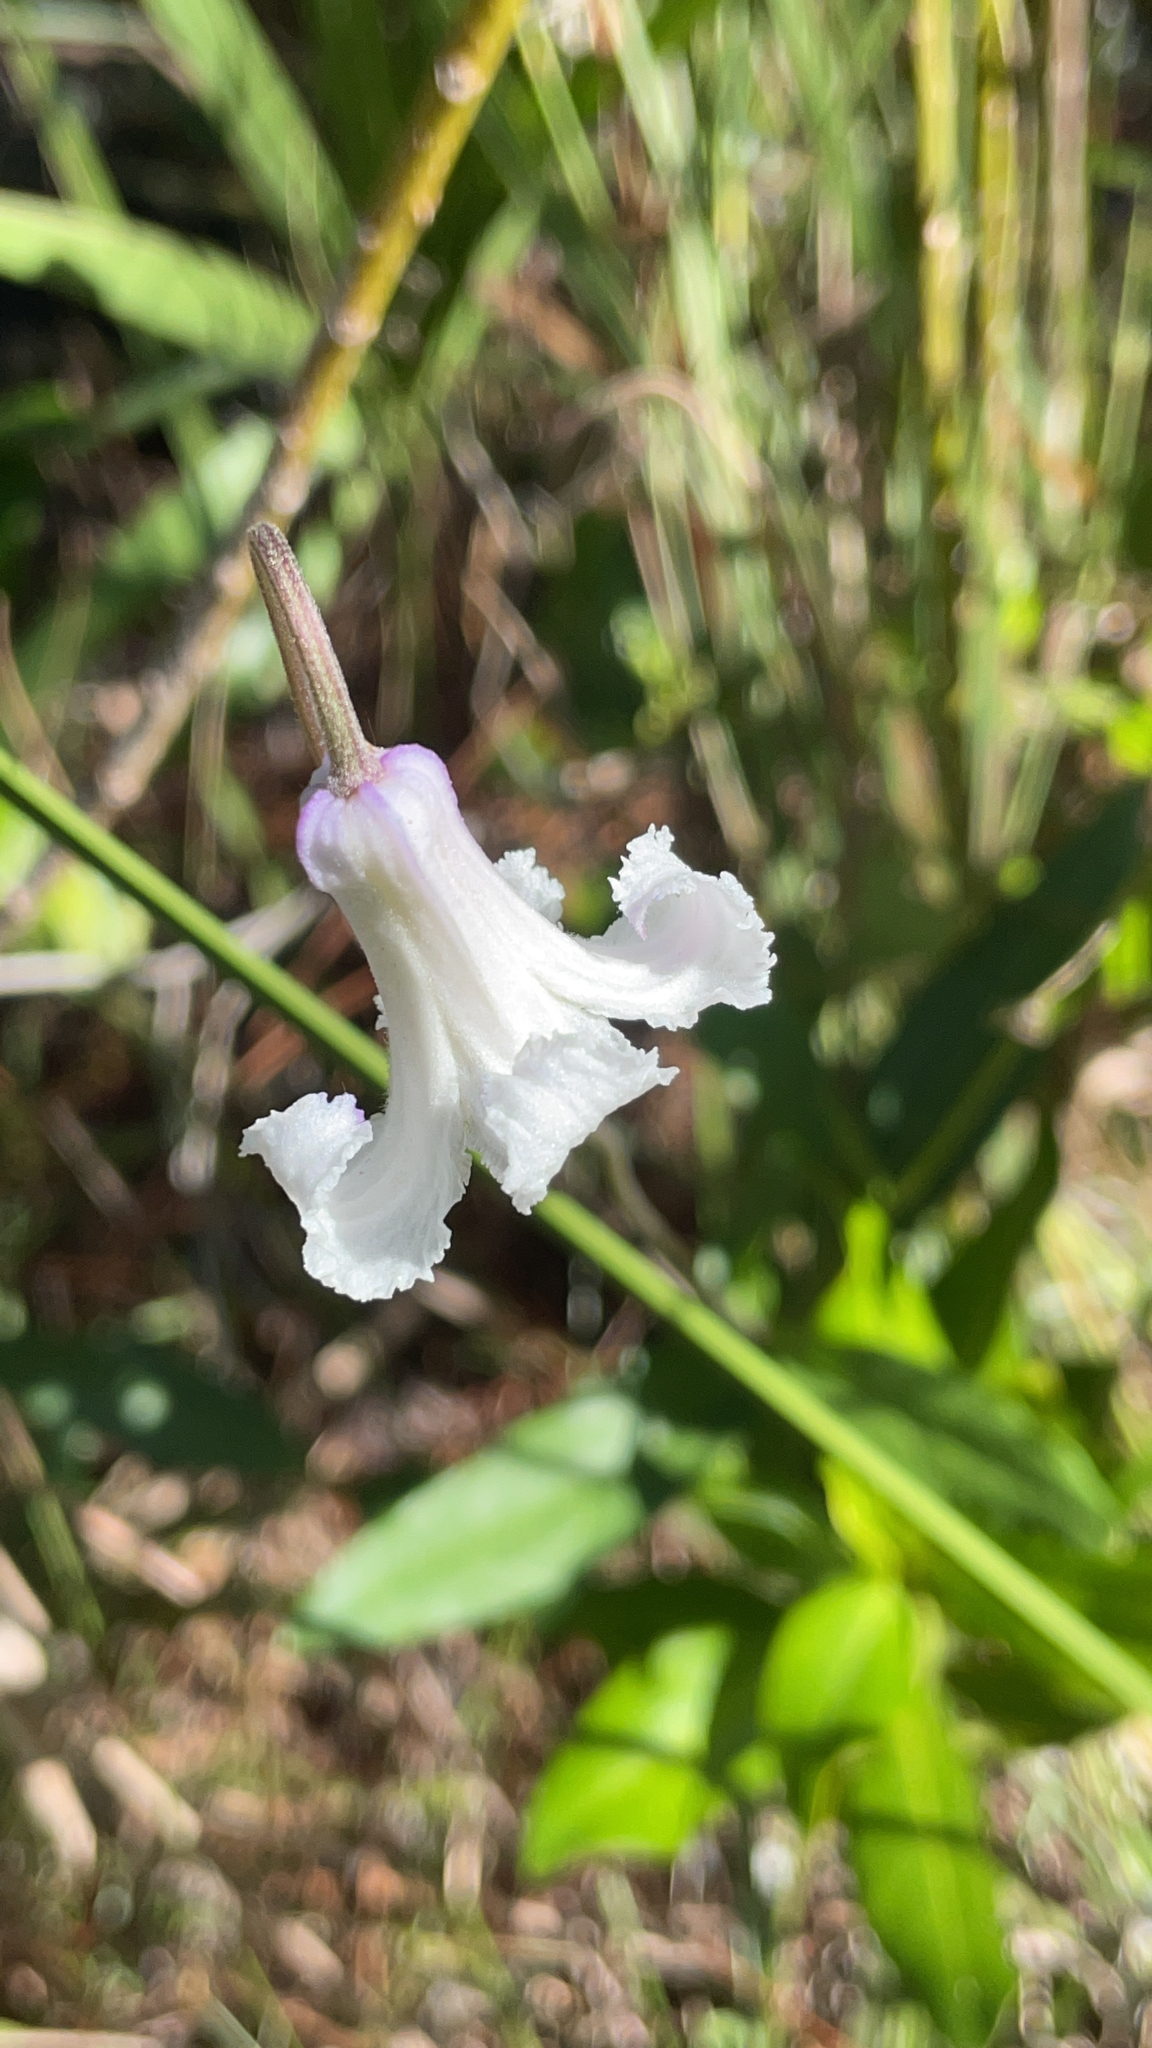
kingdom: Plantae
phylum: Tracheophyta
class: Magnoliopsida
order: Ranunculales
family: Ranunculaceae
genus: Clematis
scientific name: Clematis baldwinii
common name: Pine-hyacinth
